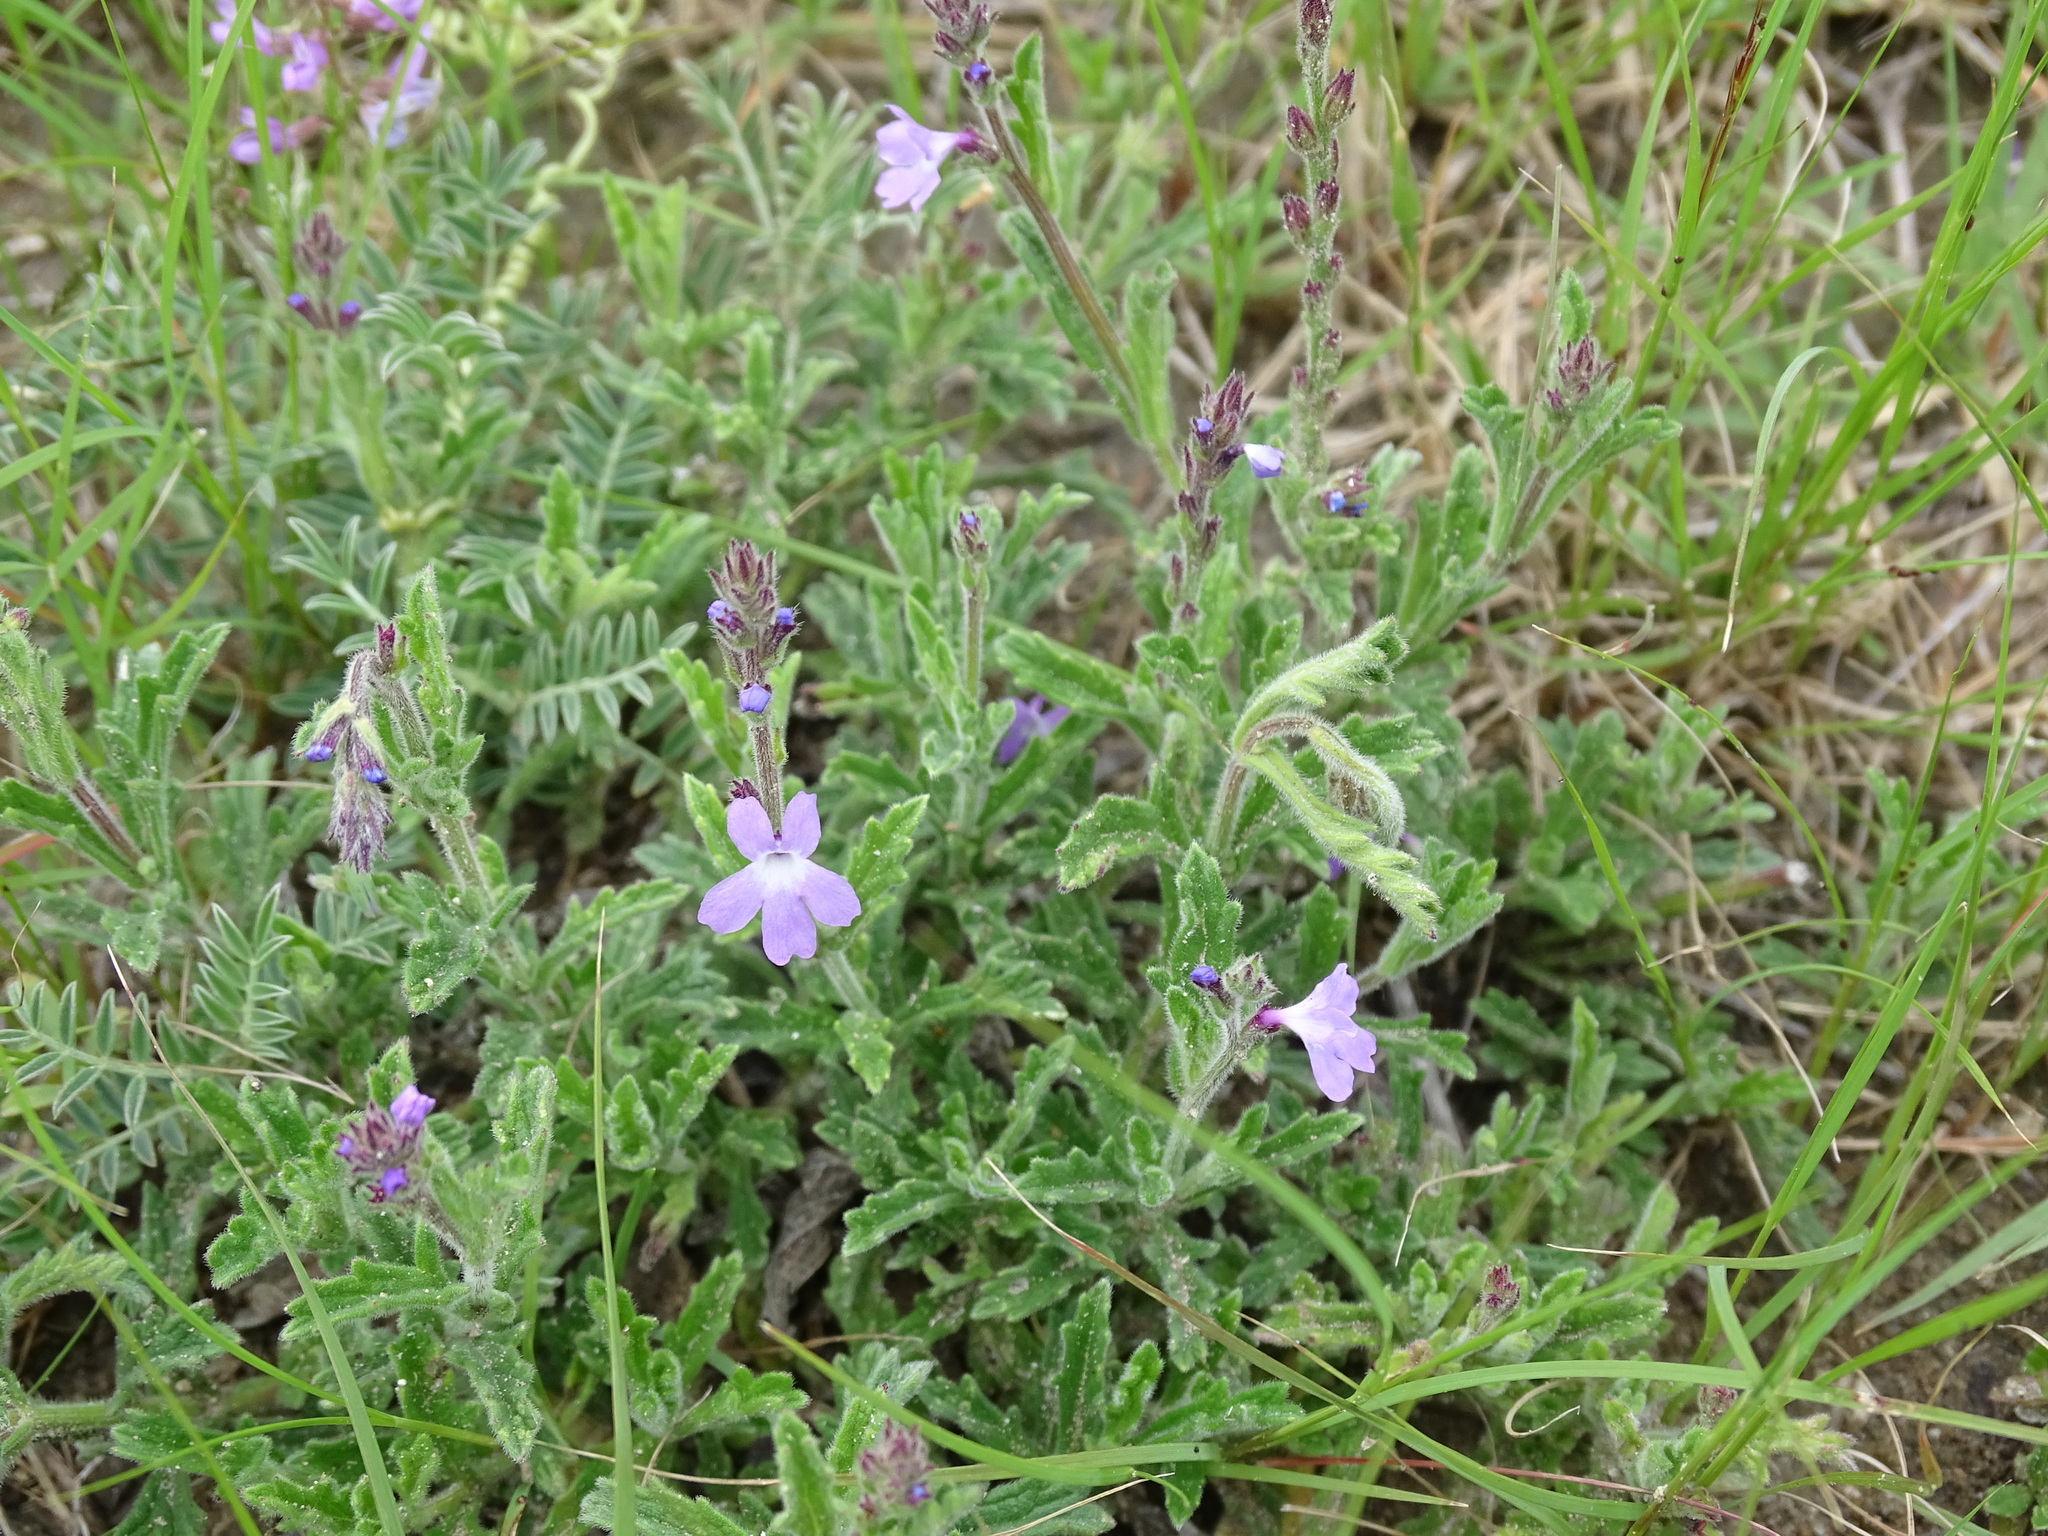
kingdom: Plantae
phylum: Tracheophyta
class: Magnoliopsida
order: Lamiales
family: Verbenaceae
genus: Verbena
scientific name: Verbena canescens
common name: Gray vervain
